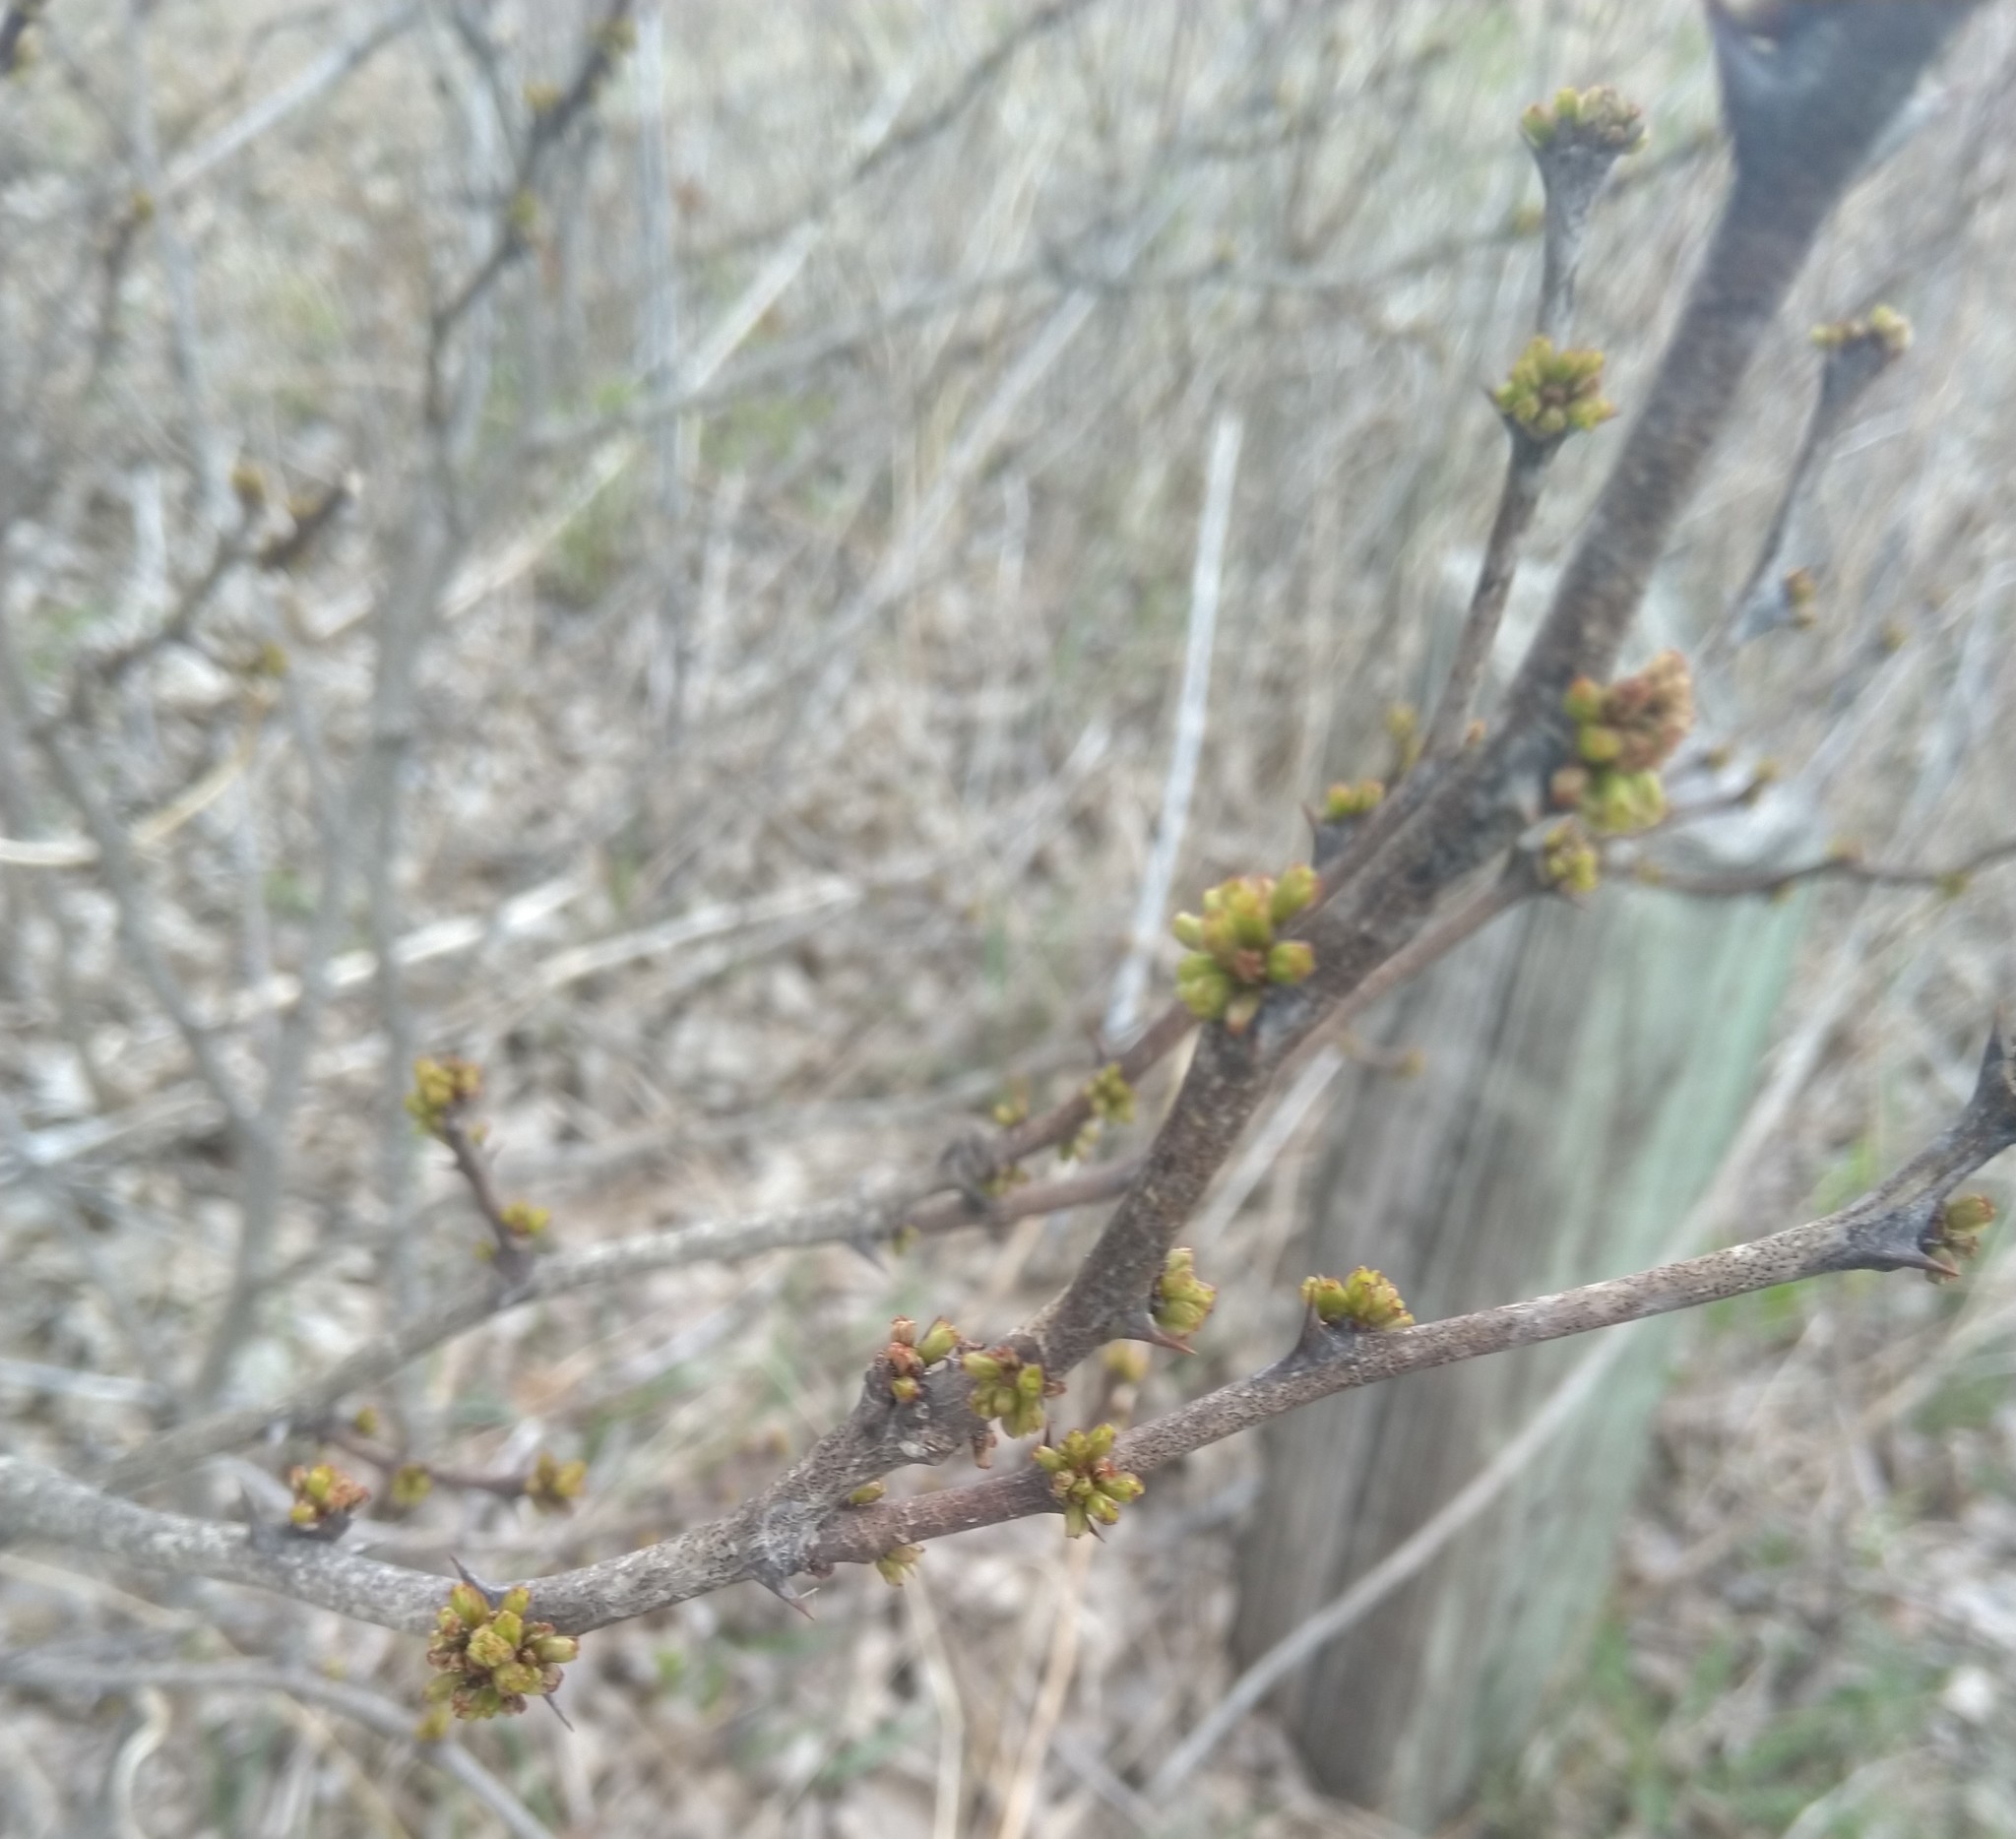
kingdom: Plantae
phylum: Tracheophyta
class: Magnoliopsida
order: Sapindales
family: Rutaceae
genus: Zanthoxylum
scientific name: Zanthoxylum americanum
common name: Northern prickly-ash
